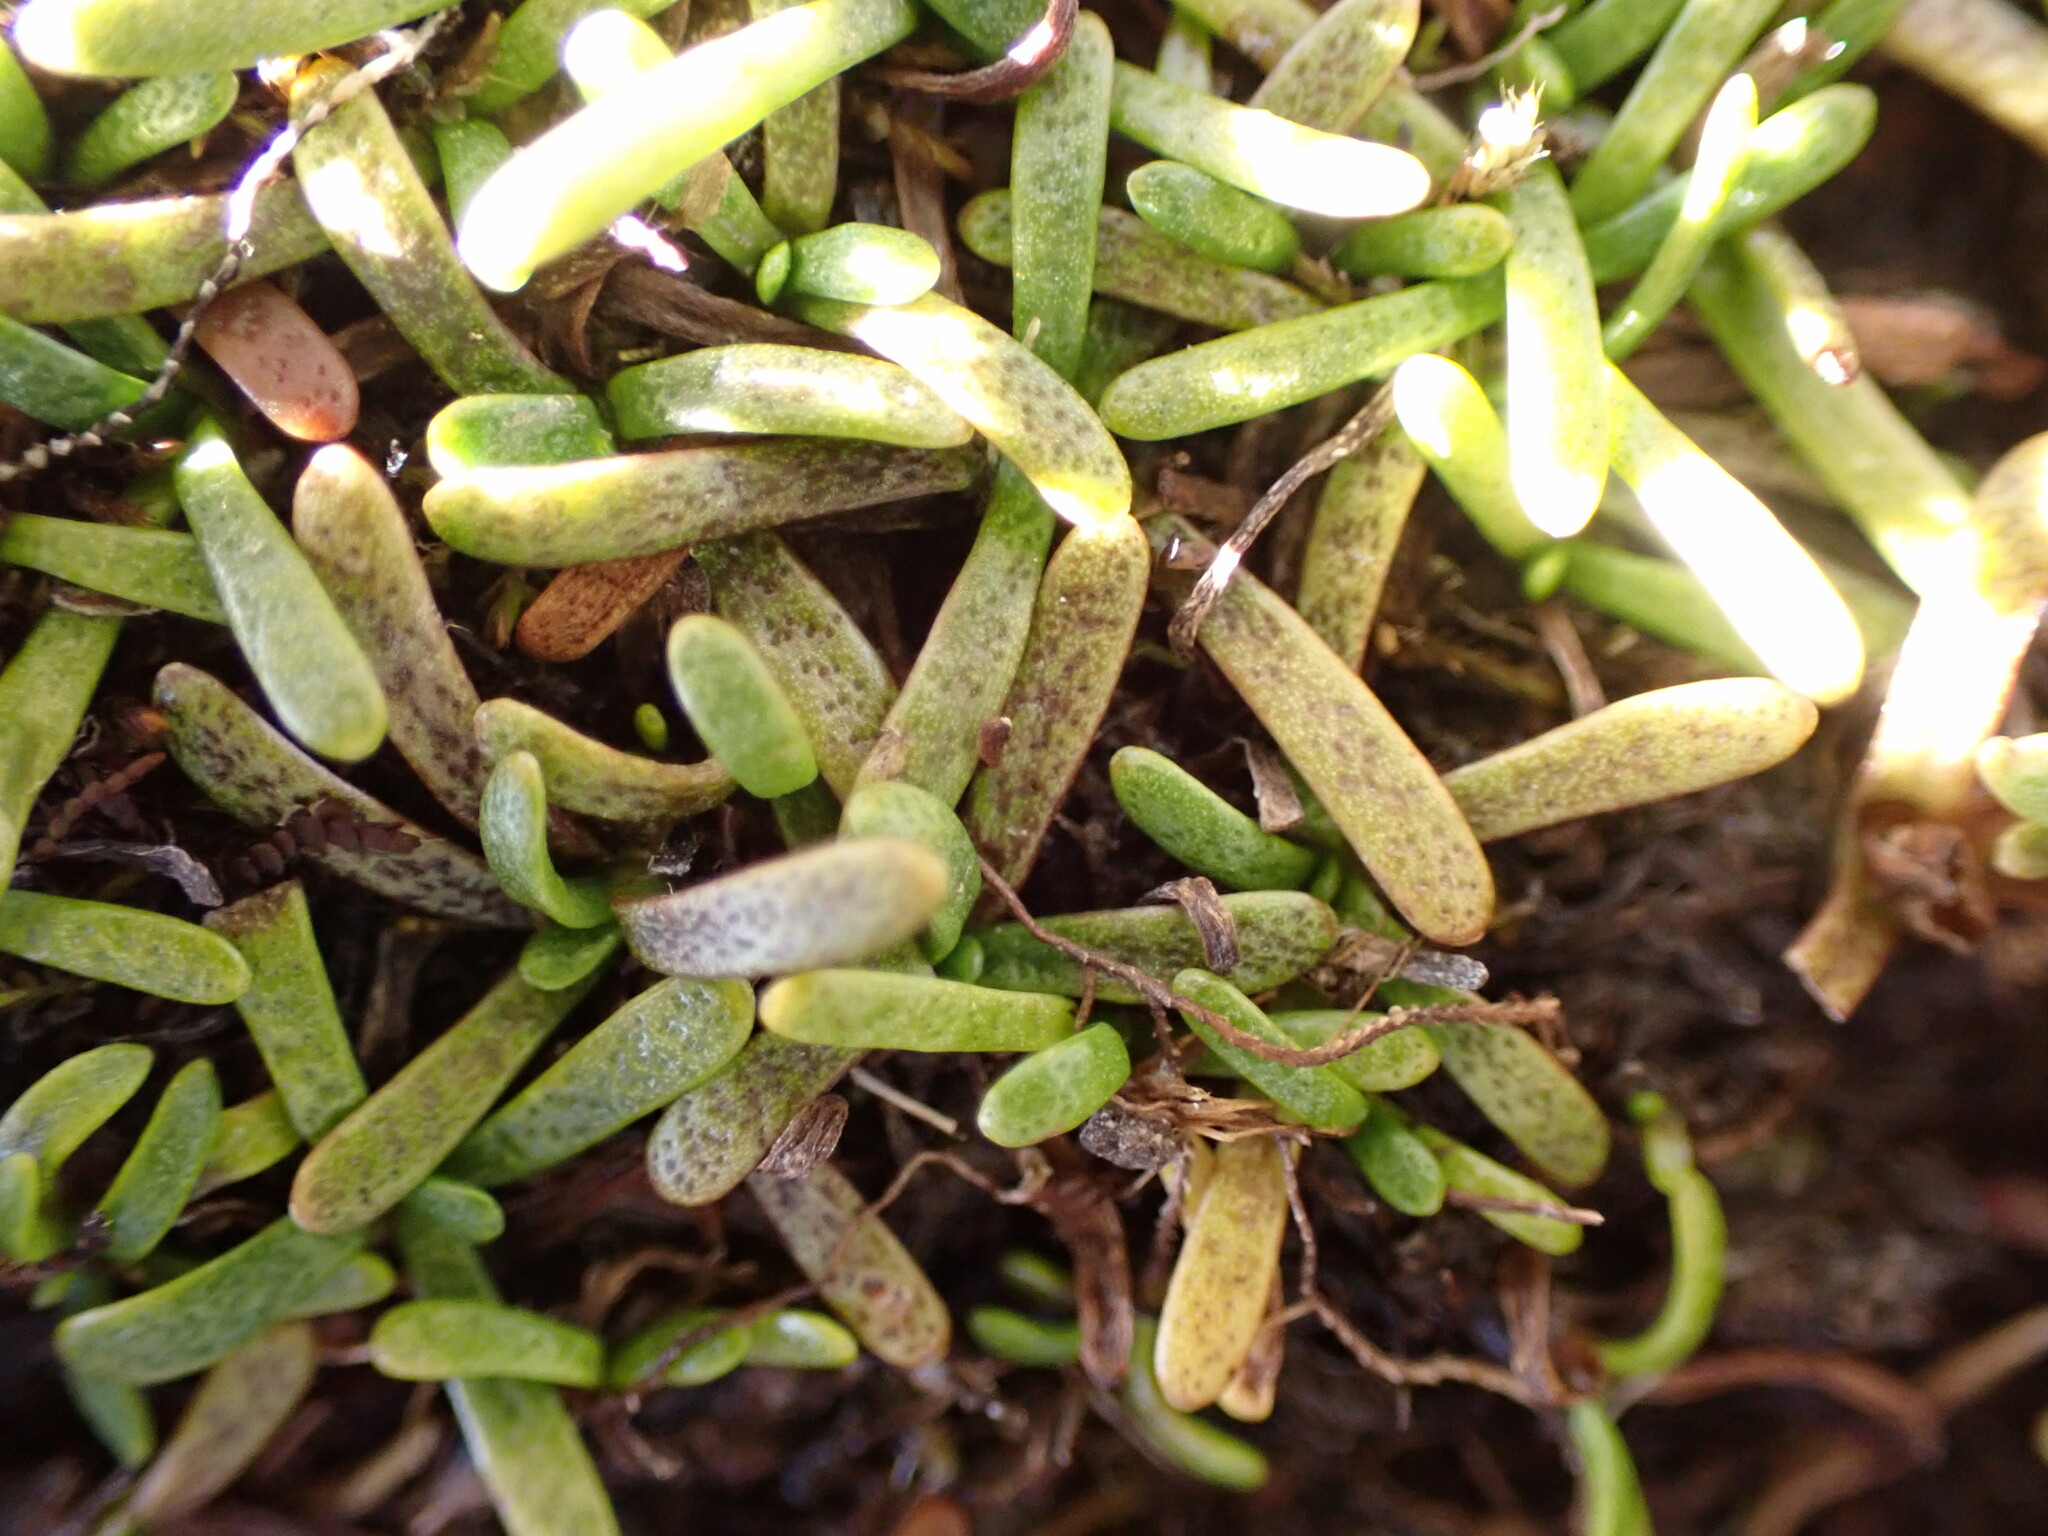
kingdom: Plantae
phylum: Tracheophyta
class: Magnoliopsida
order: Asterales
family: Asteraceae
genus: Abrotanella
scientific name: Abrotanella caespitosa
